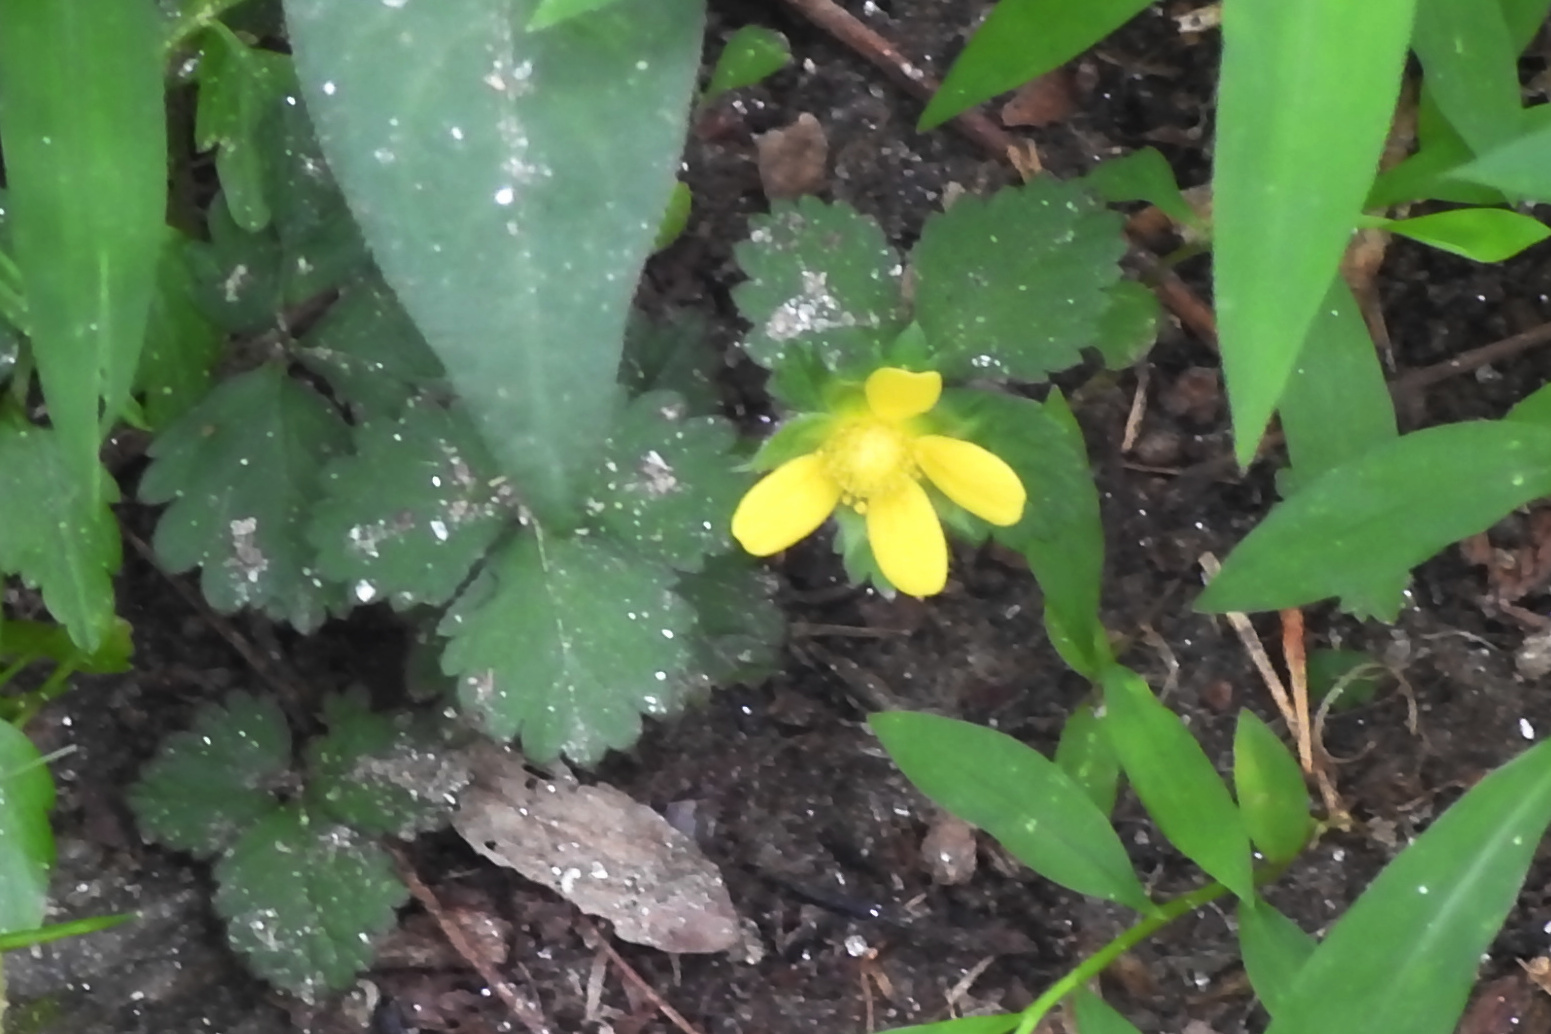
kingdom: Plantae
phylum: Tracheophyta
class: Magnoliopsida
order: Rosales
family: Rosaceae
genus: Potentilla
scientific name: Potentilla indica
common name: Yellow-flowered strawberry
